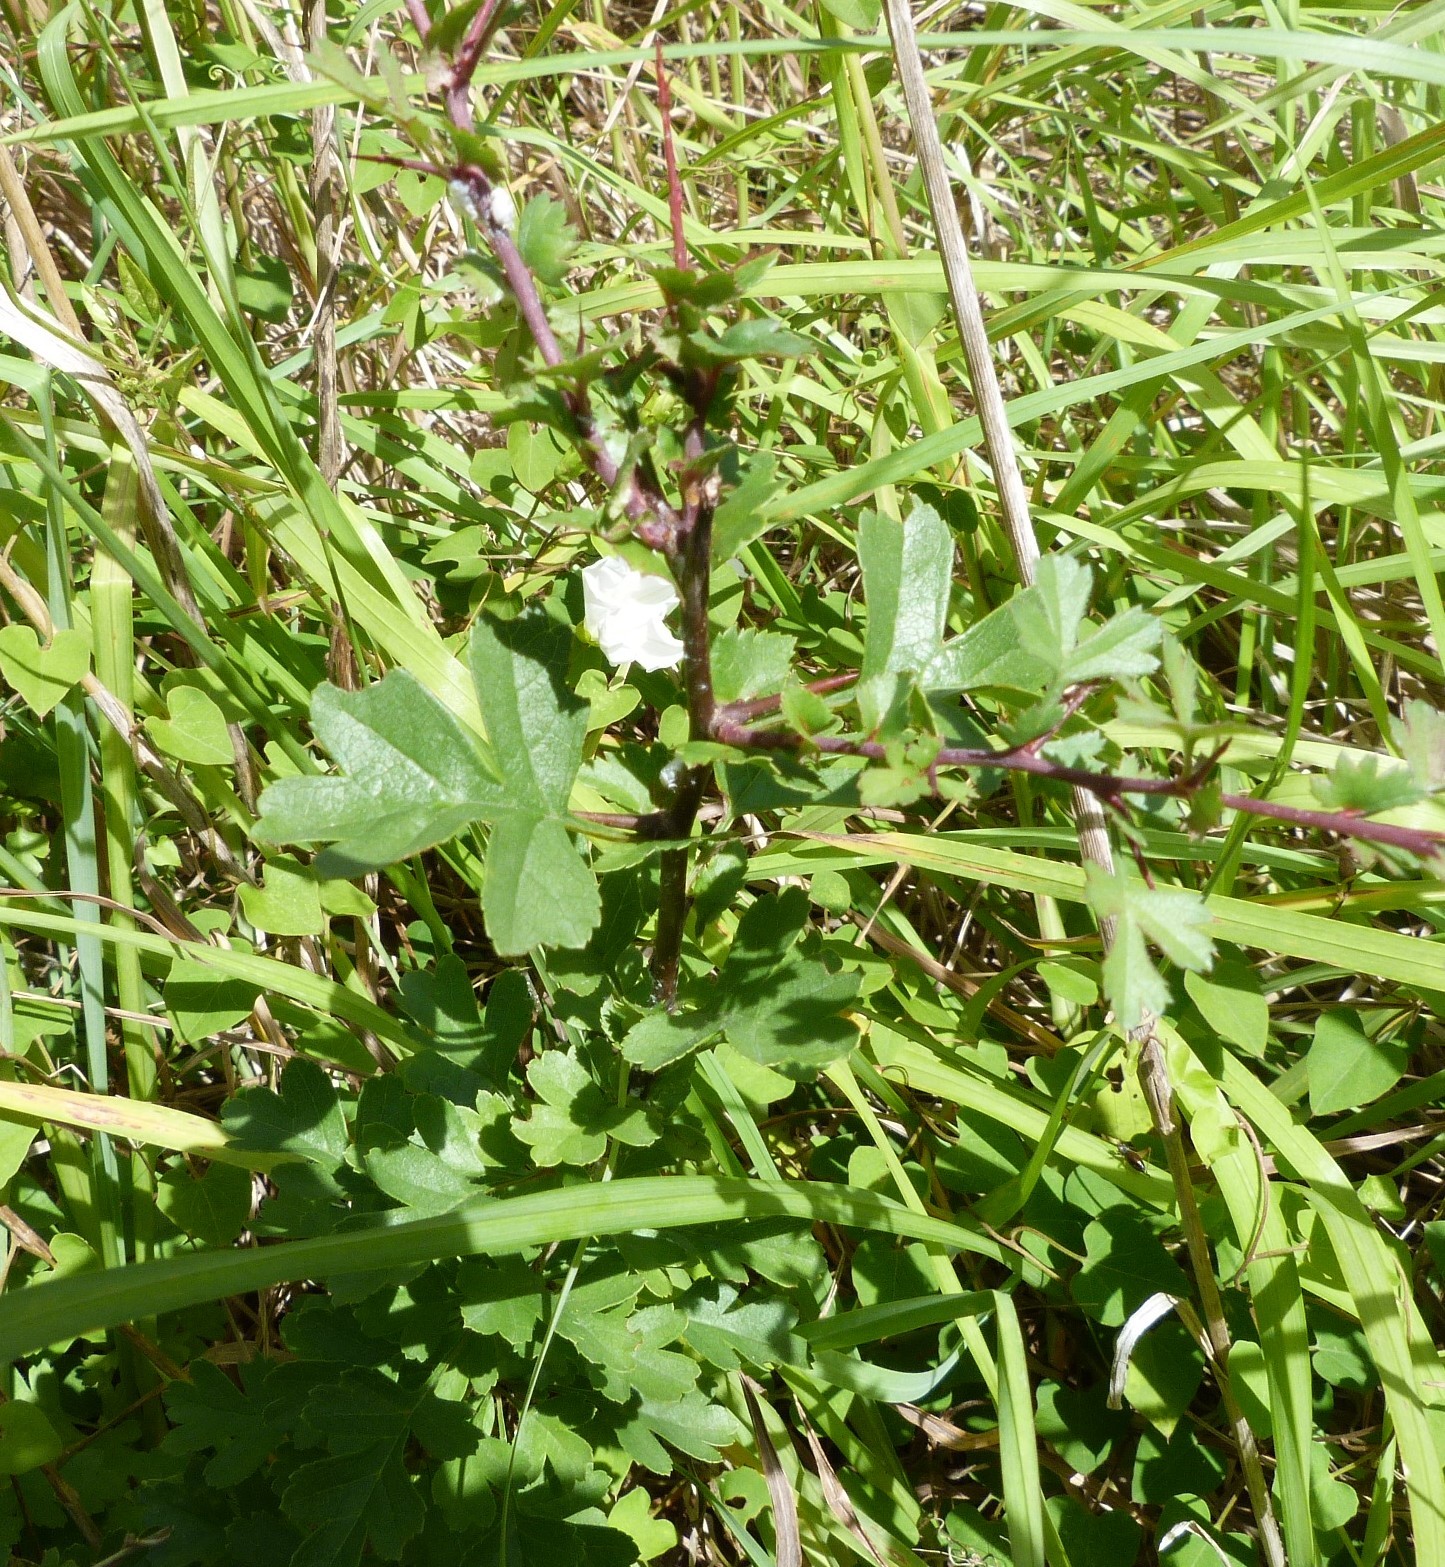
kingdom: Plantae
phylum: Tracheophyta
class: Magnoliopsida
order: Rosales
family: Rosaceae
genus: Crataegus
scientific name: Crataegus monogyna
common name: Hawthorn
